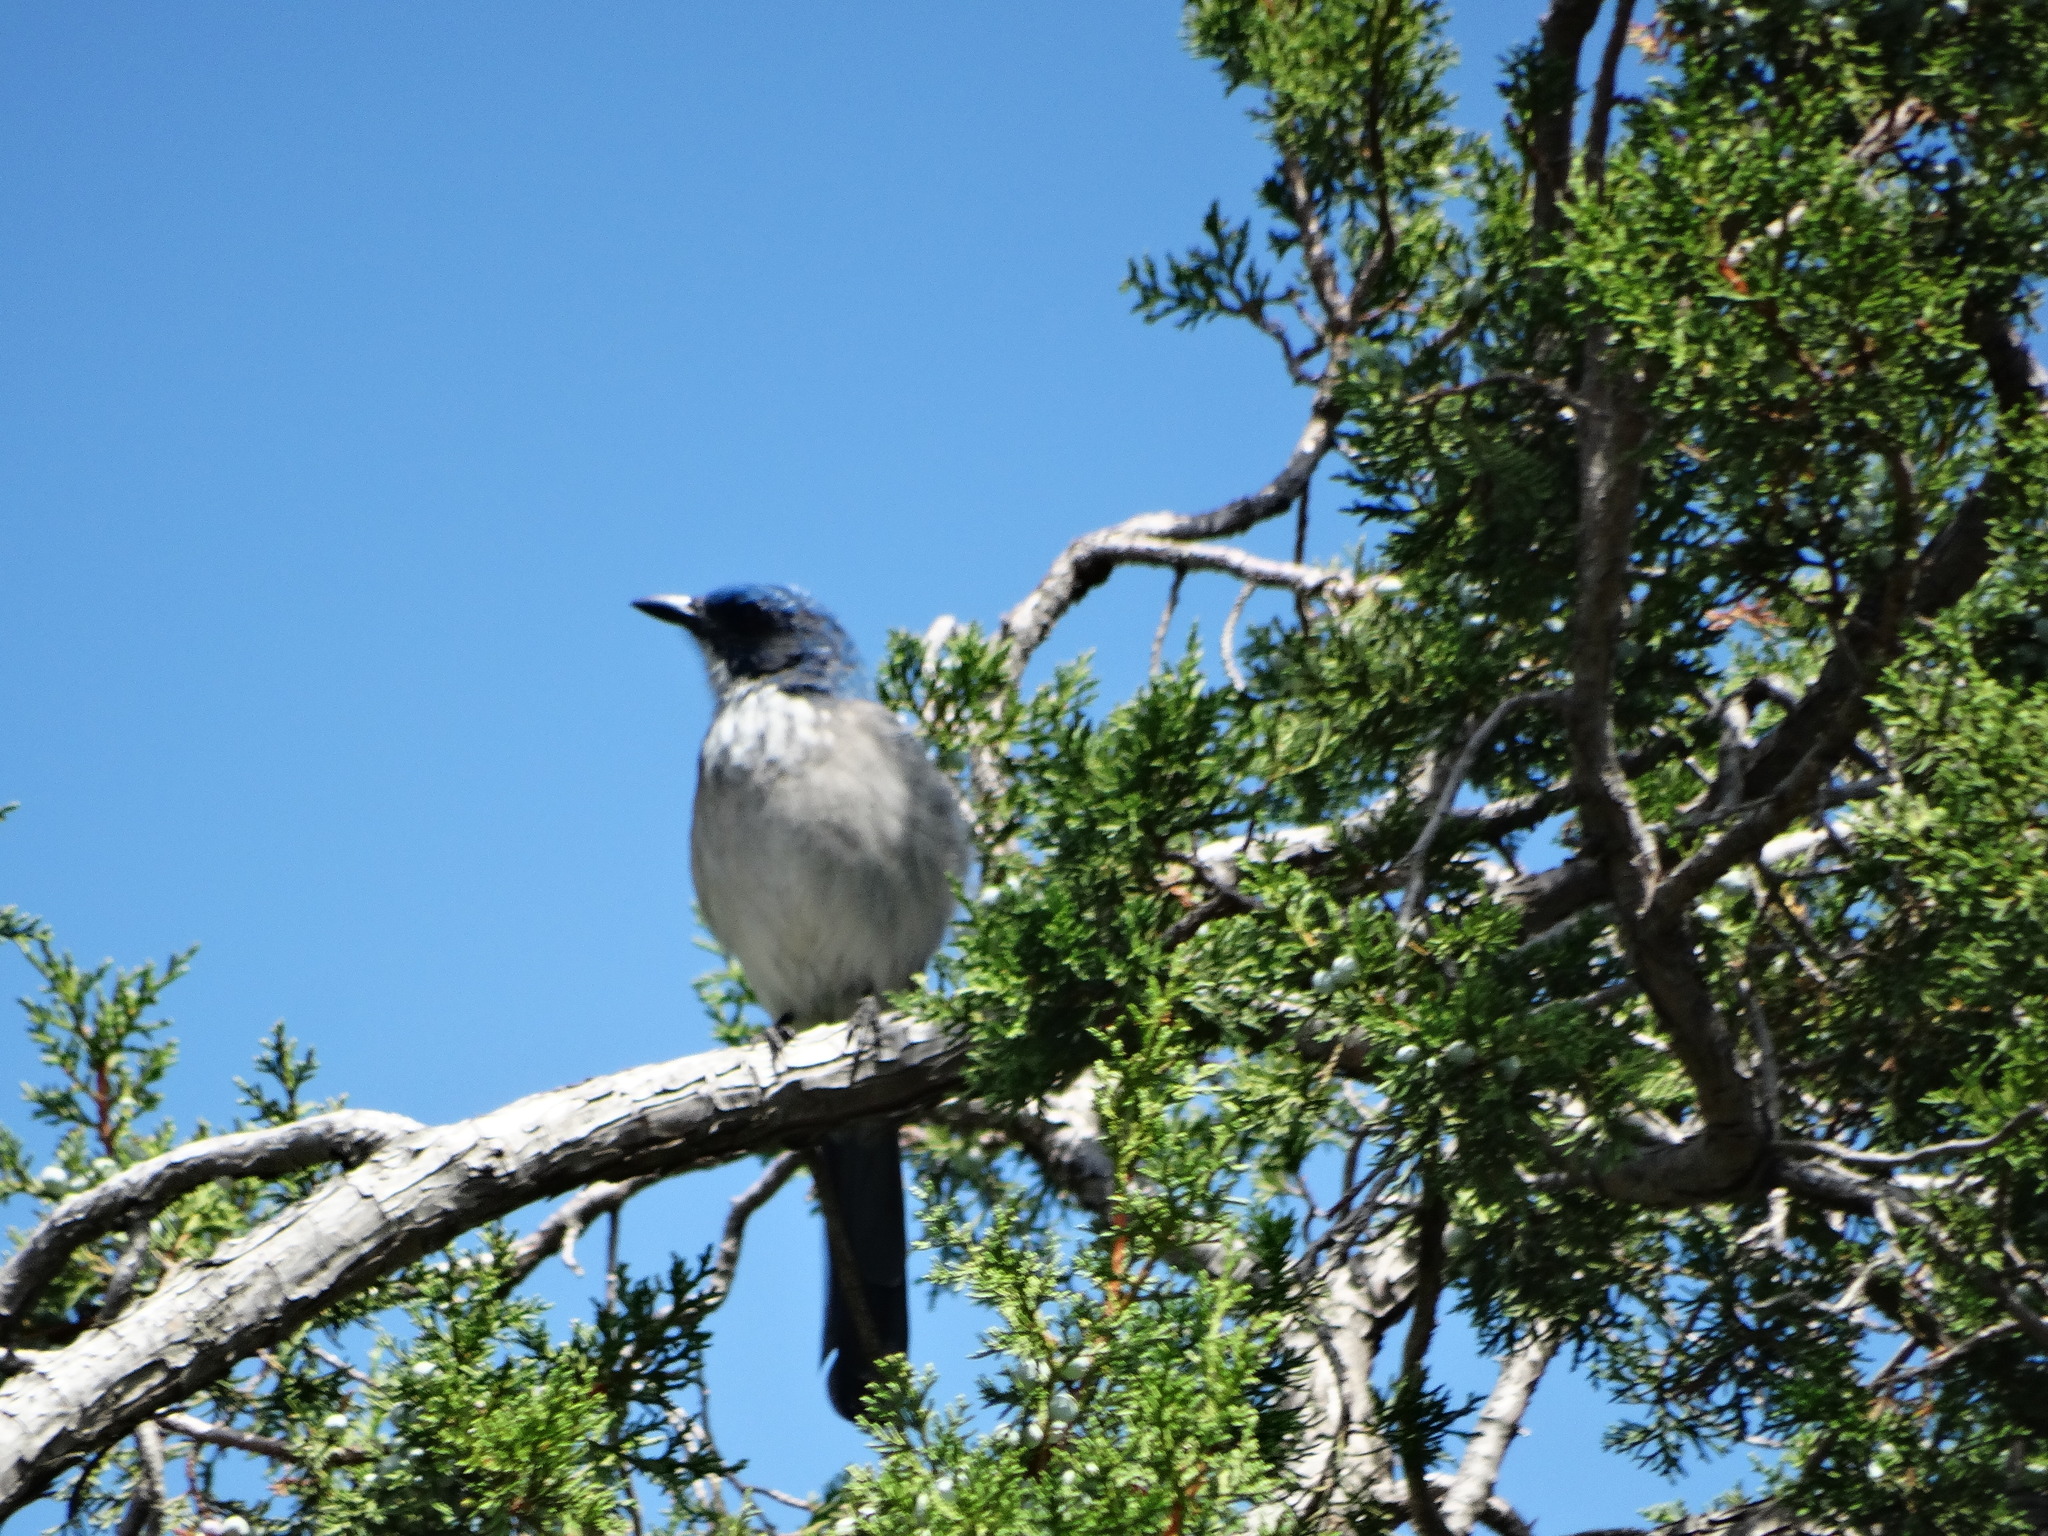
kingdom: Animalia
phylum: Chordata
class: Aves
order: Passeriformes
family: Corvidae
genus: Aphelocoma
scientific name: Aphelocoma woodhouseii
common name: Woodhouse's scrub-jay
